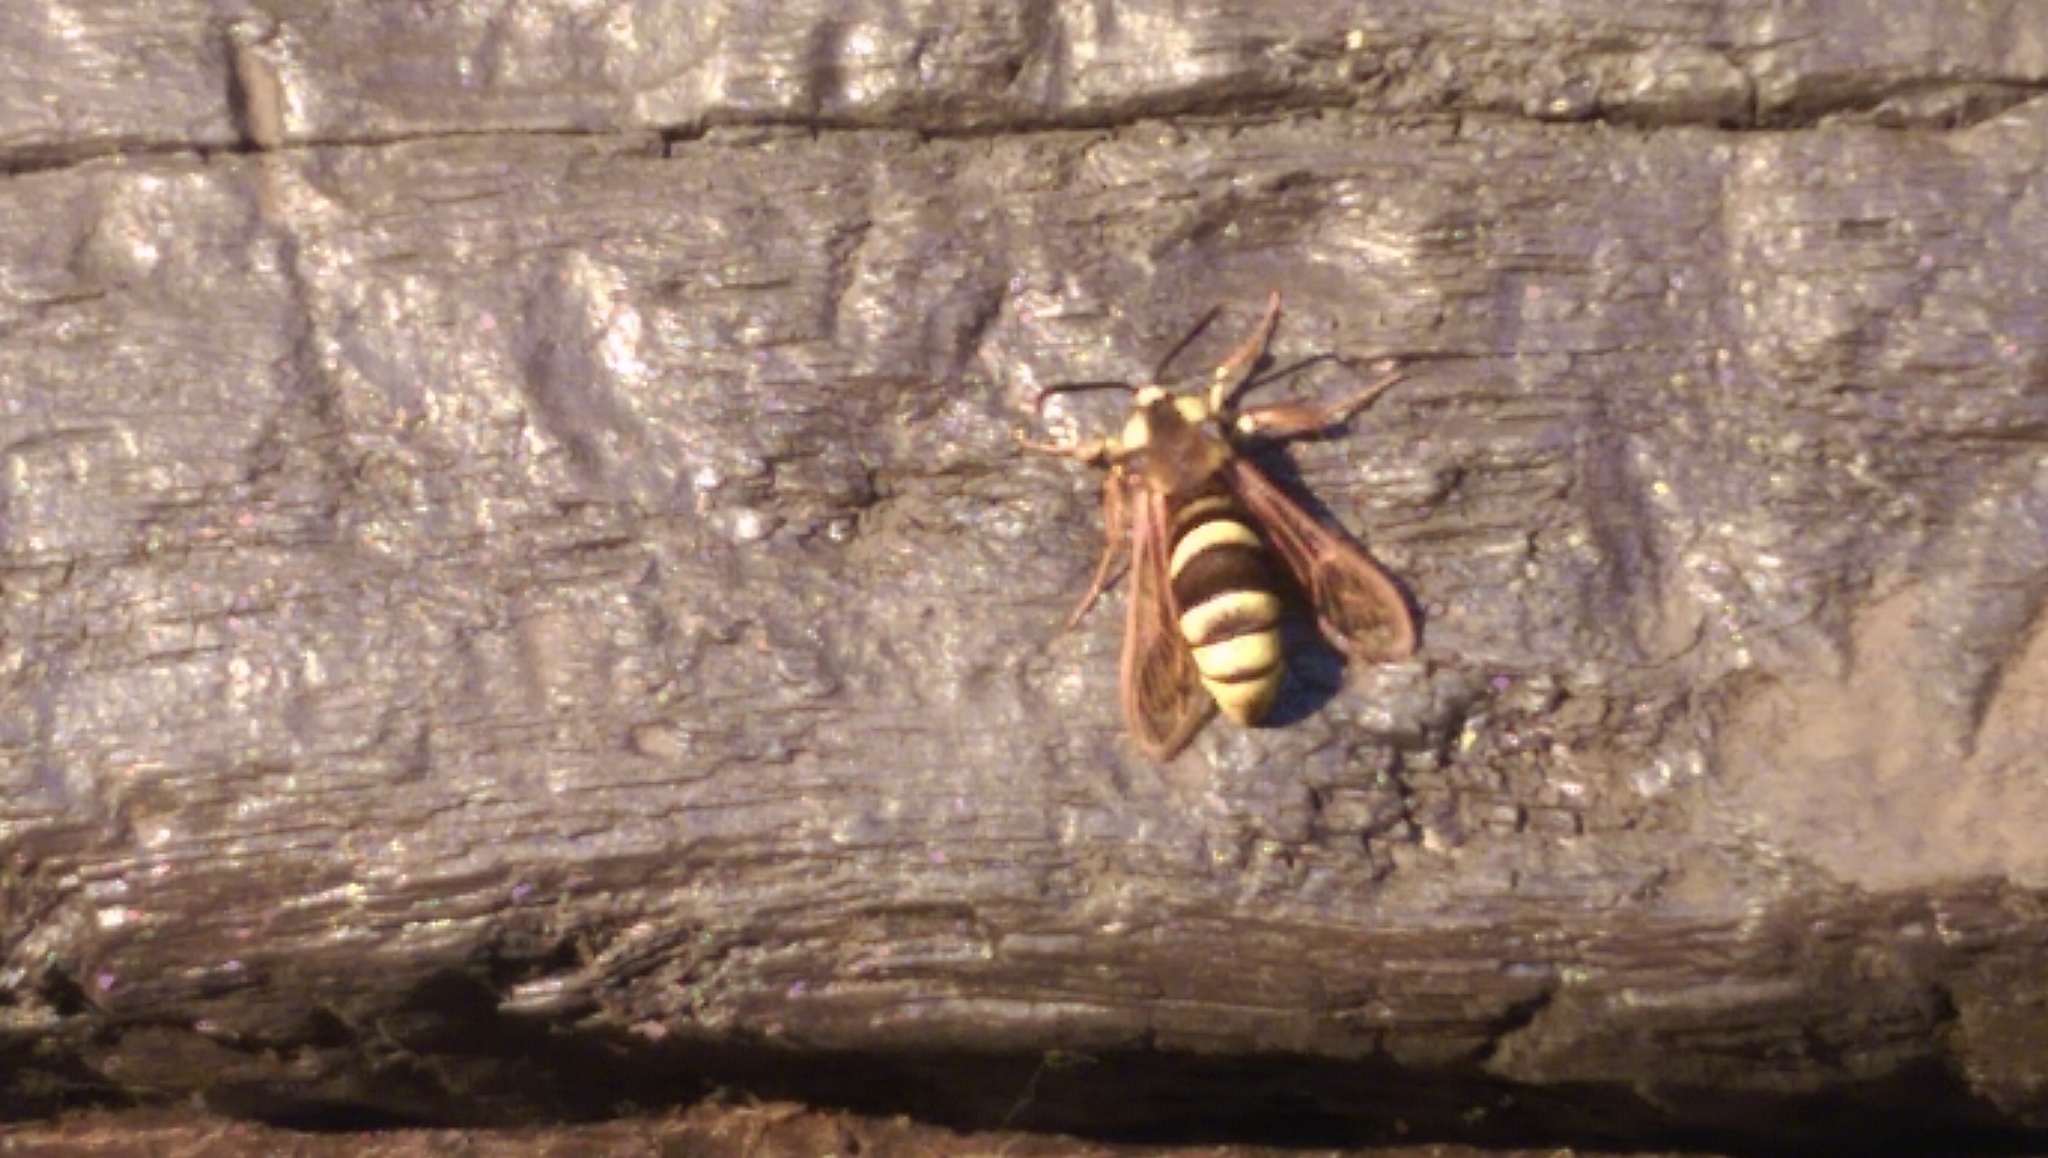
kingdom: Animalia
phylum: Arthropoda
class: Insecta
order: Lepidoptera
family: Sesiidae
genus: Sesia
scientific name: Sesia apiformis
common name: Hornet moth
